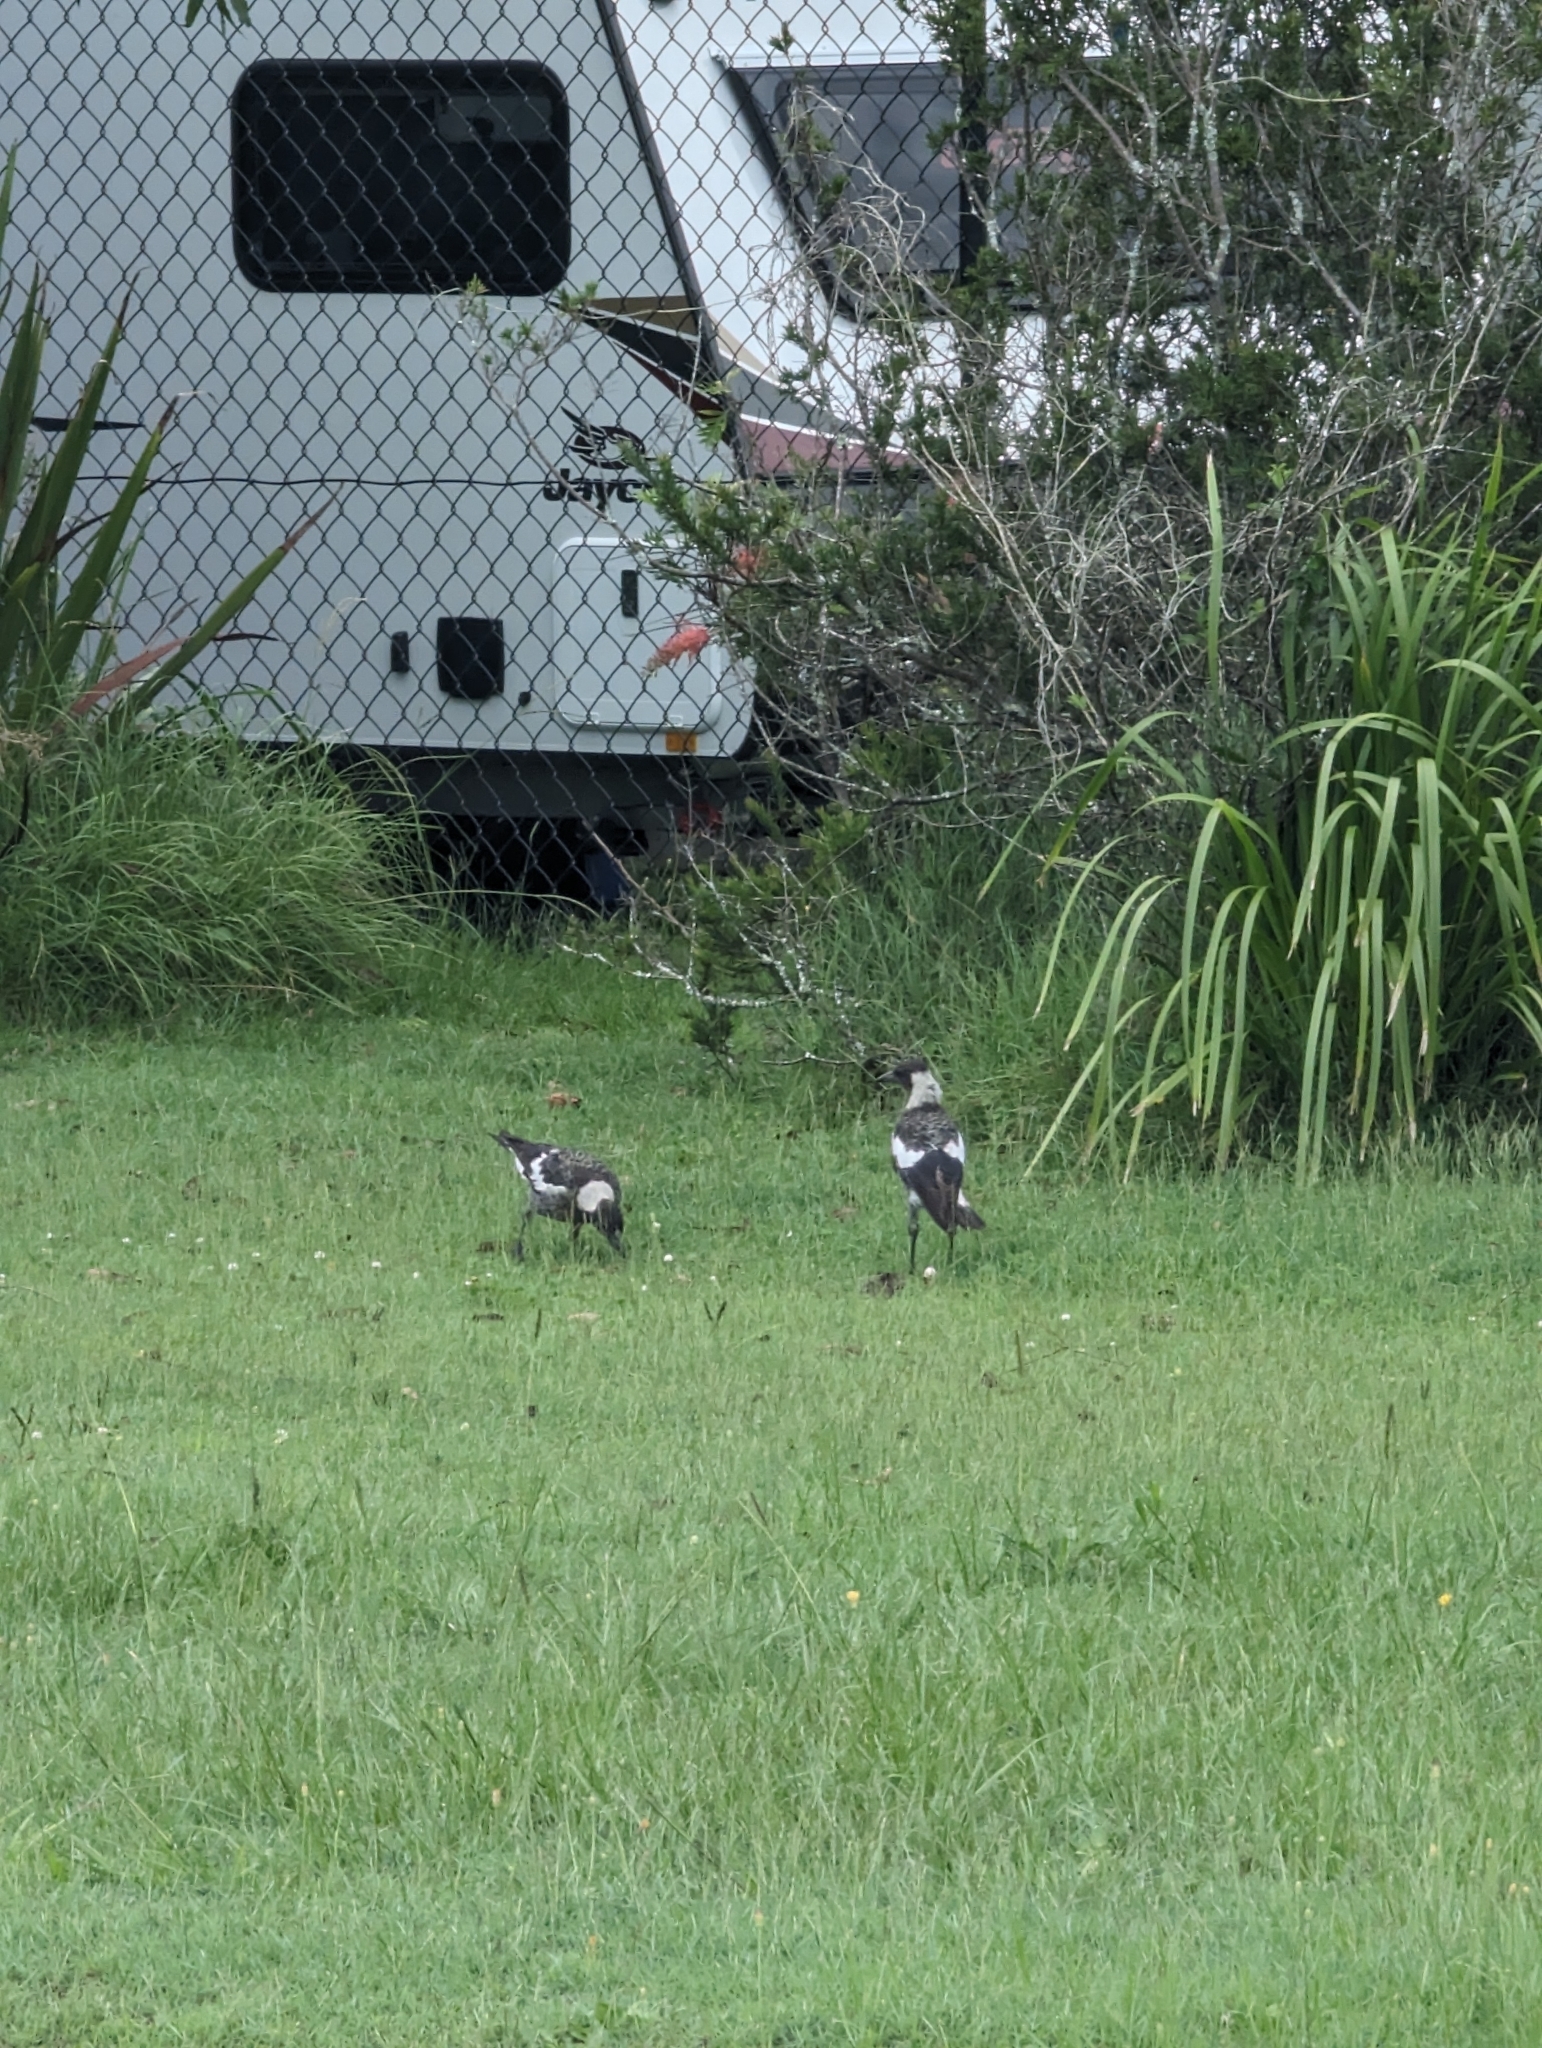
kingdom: Animalia
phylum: Chordata
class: Aves
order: Passeriformes
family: Cracticidae
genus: Gymnorhina
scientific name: Gymnorhina tibicen
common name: Australian magpie
